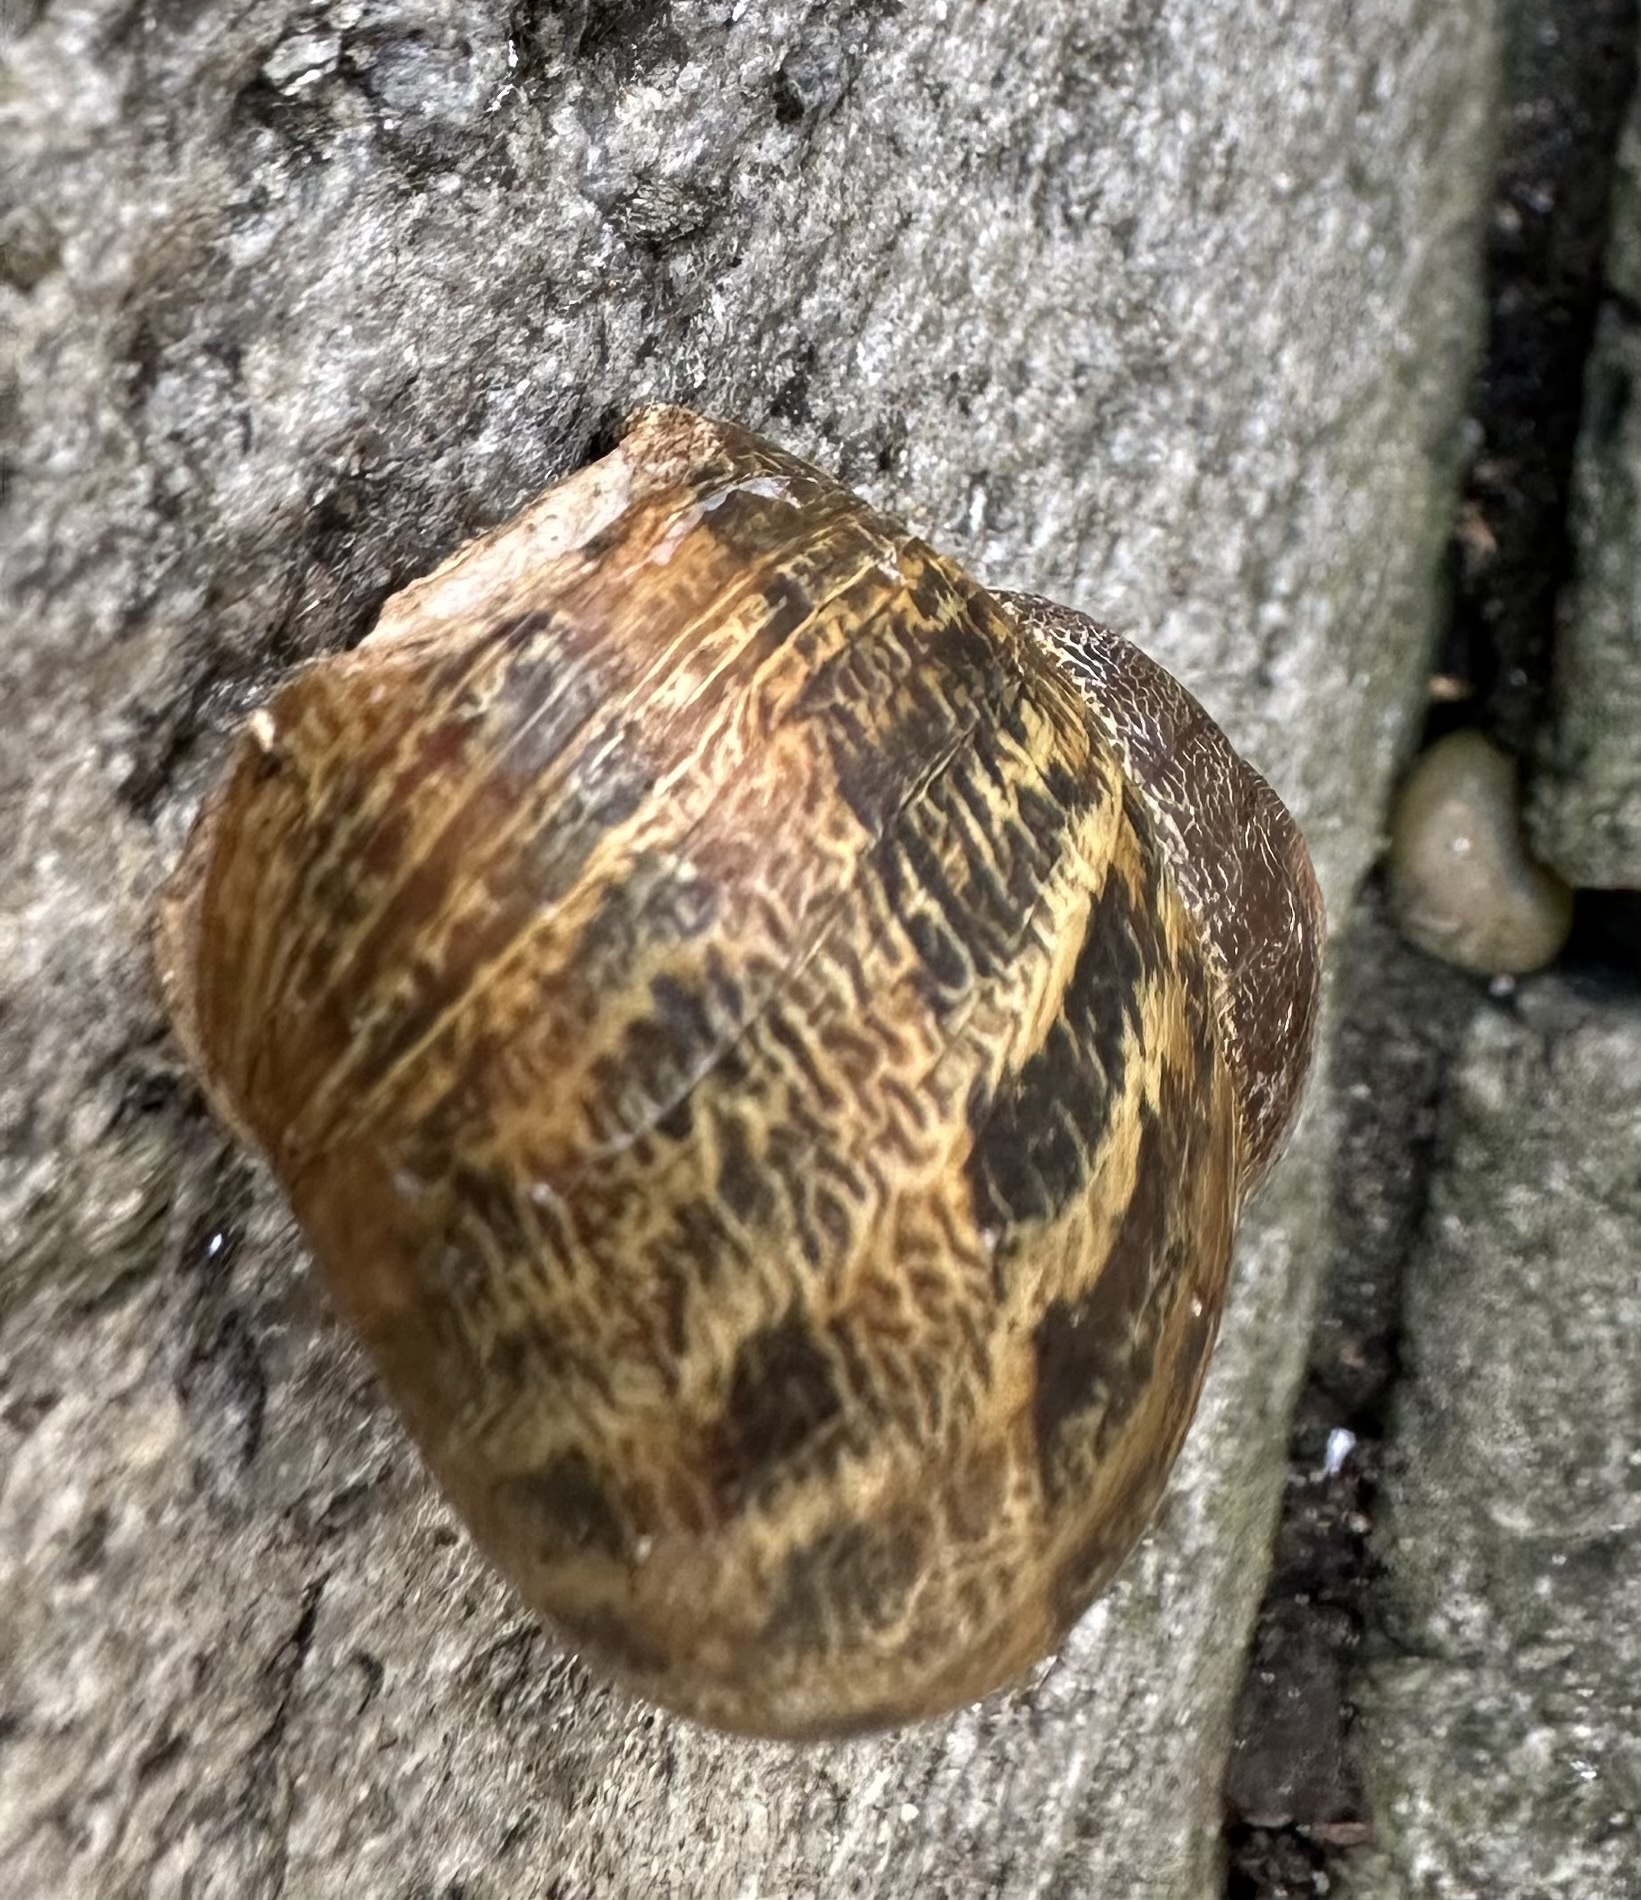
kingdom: Animalia
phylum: Mollusca
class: Gastropoda
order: Stylommatophora
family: Helicidae
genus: Cornu
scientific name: Cornu aspersum
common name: Brown garden snail
